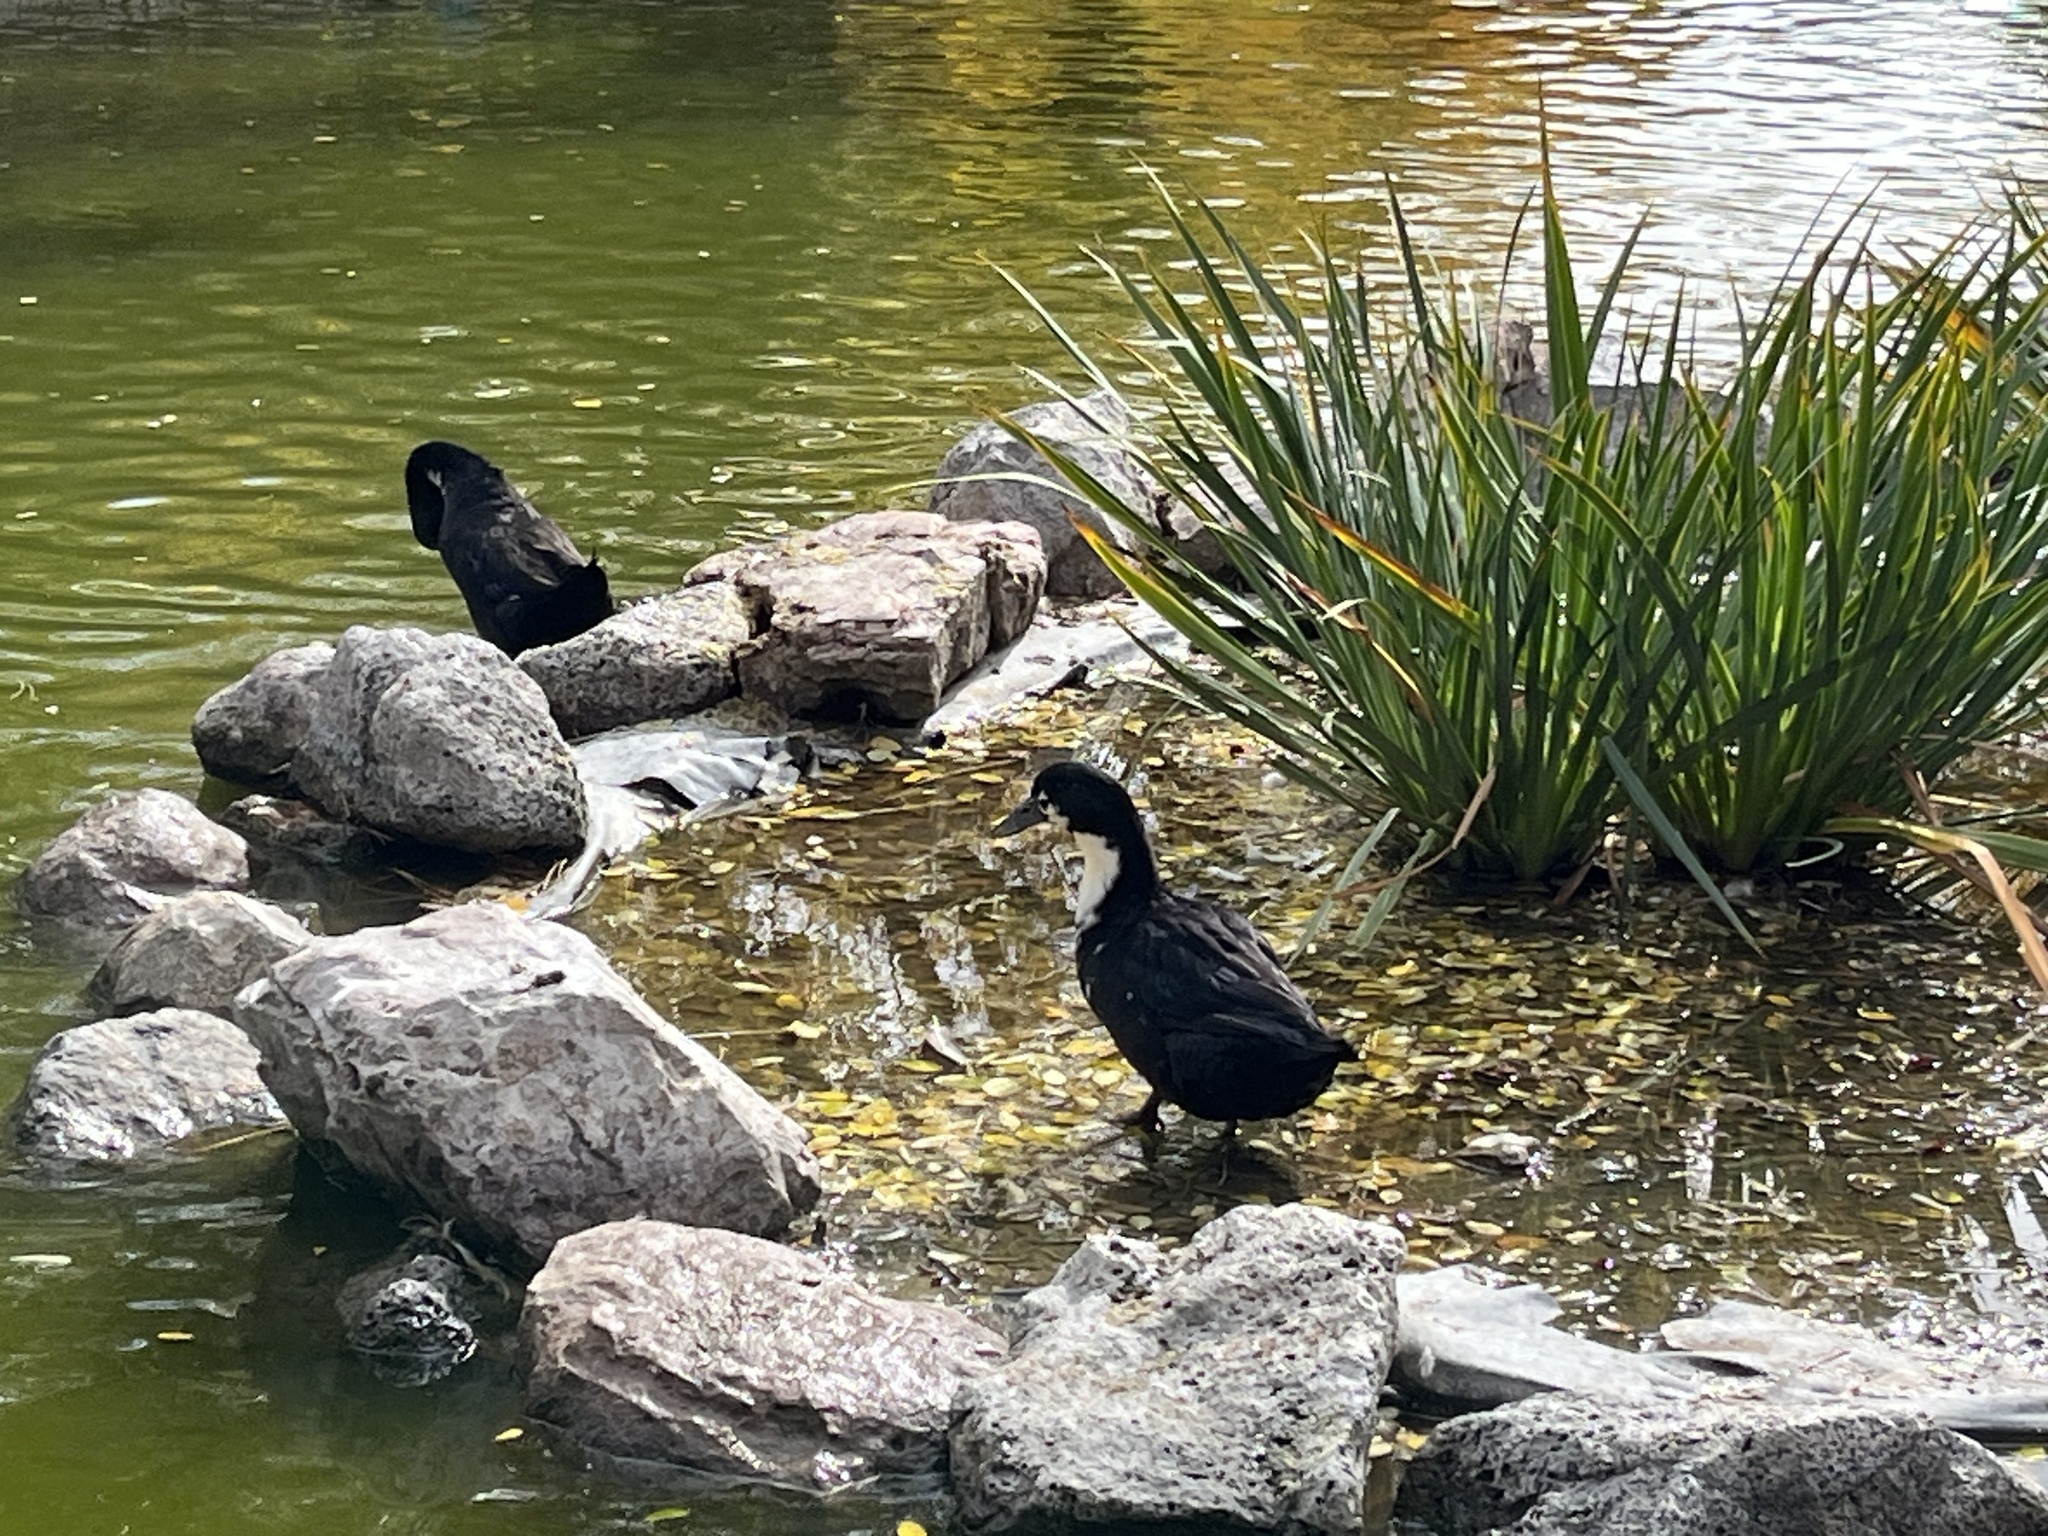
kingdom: Animalia
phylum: Chordata
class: Aves
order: Anseriformes
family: Anatidae
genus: Anas
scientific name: Anas platyrhynchos
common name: Mallard
